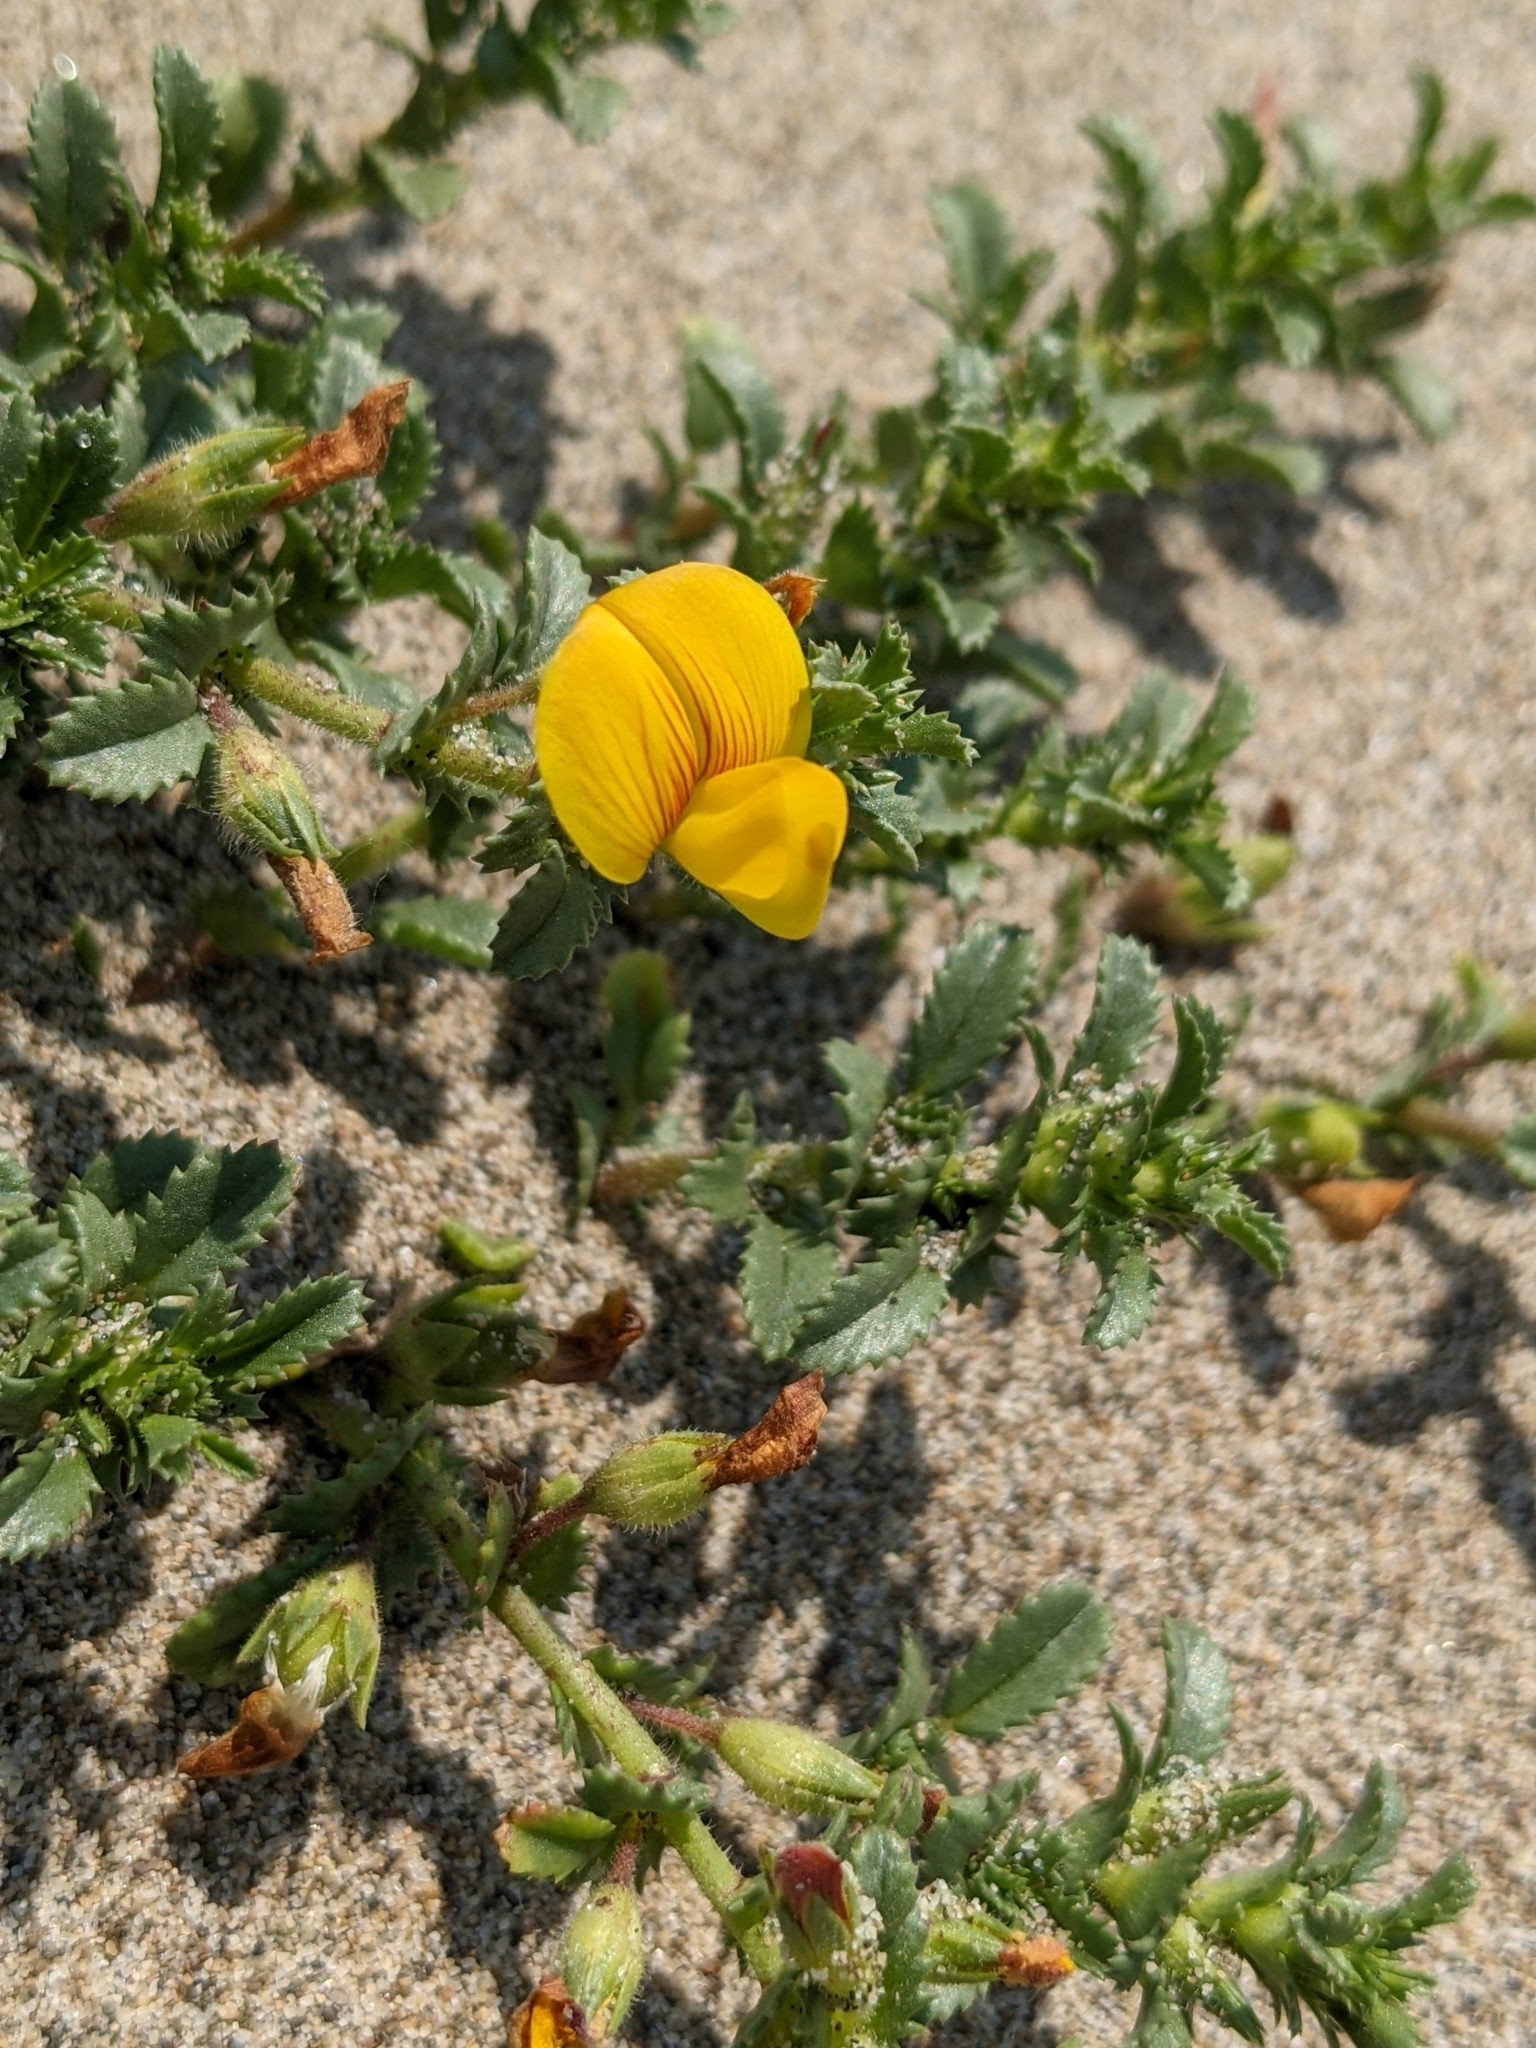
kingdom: Plantae
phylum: Tracheophyta
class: Magnoliopsida
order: Fabales
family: Fabaceae
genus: Ononis
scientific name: Ononis variegata
